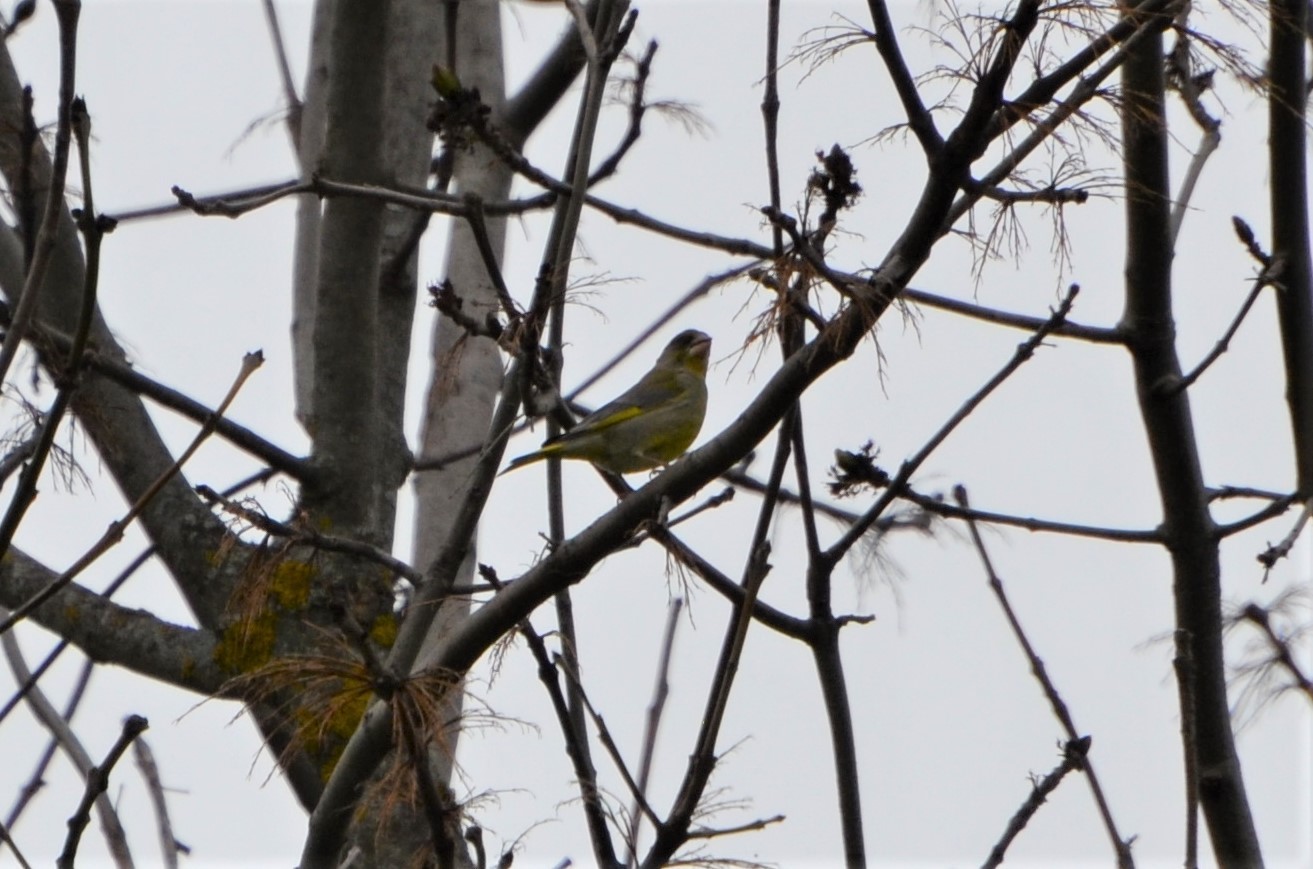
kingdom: Plantae
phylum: Tracheophyta
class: Liliopsida
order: Poales
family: Poaceae
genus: Chloris
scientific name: Chloris chloris
